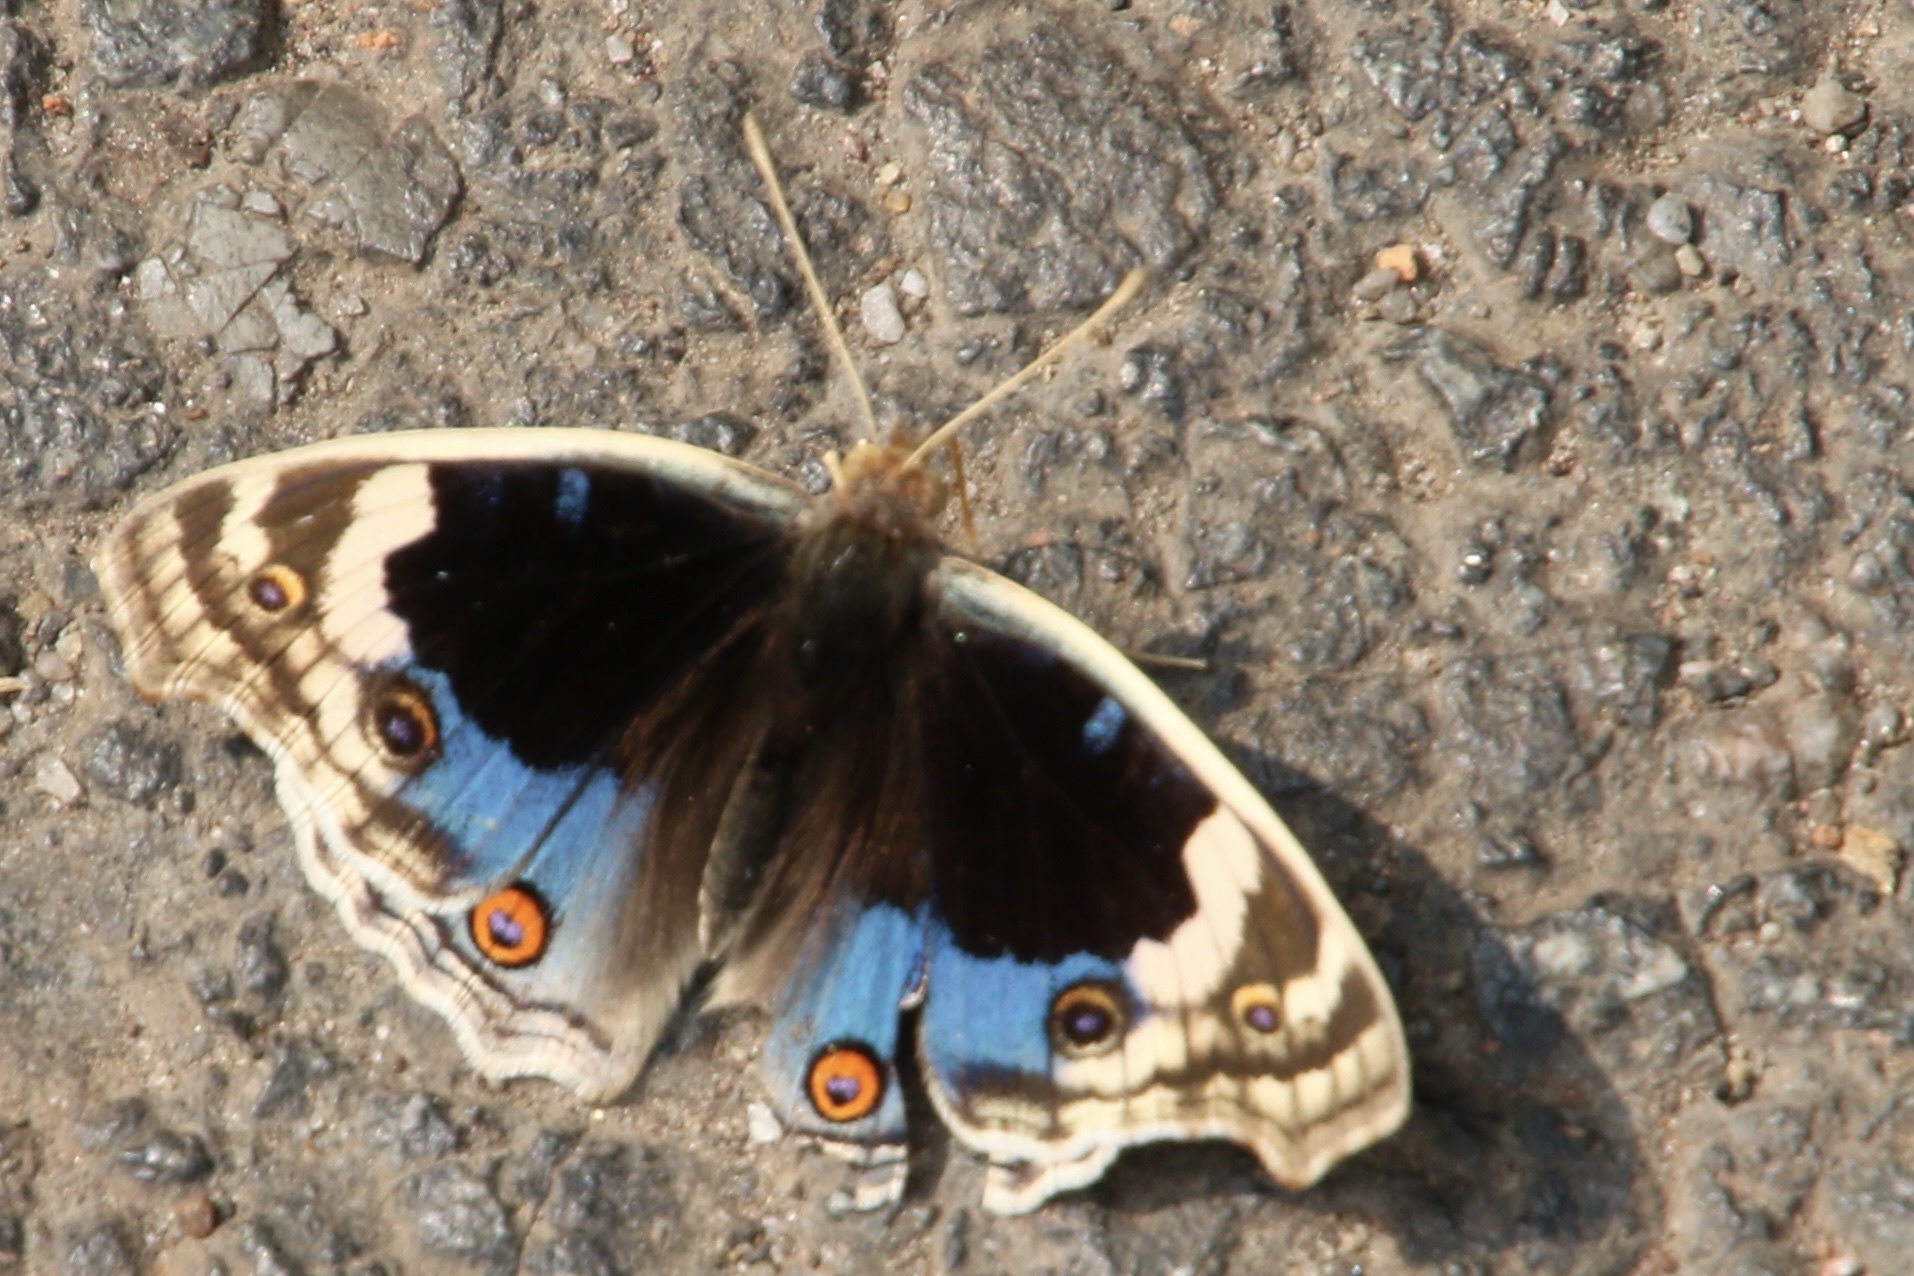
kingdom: Animalia
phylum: Arthropoda
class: Insecta
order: Lepidoptera
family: Nymphalidae
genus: Junonia
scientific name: Junonia orithya
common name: Blue pansy
